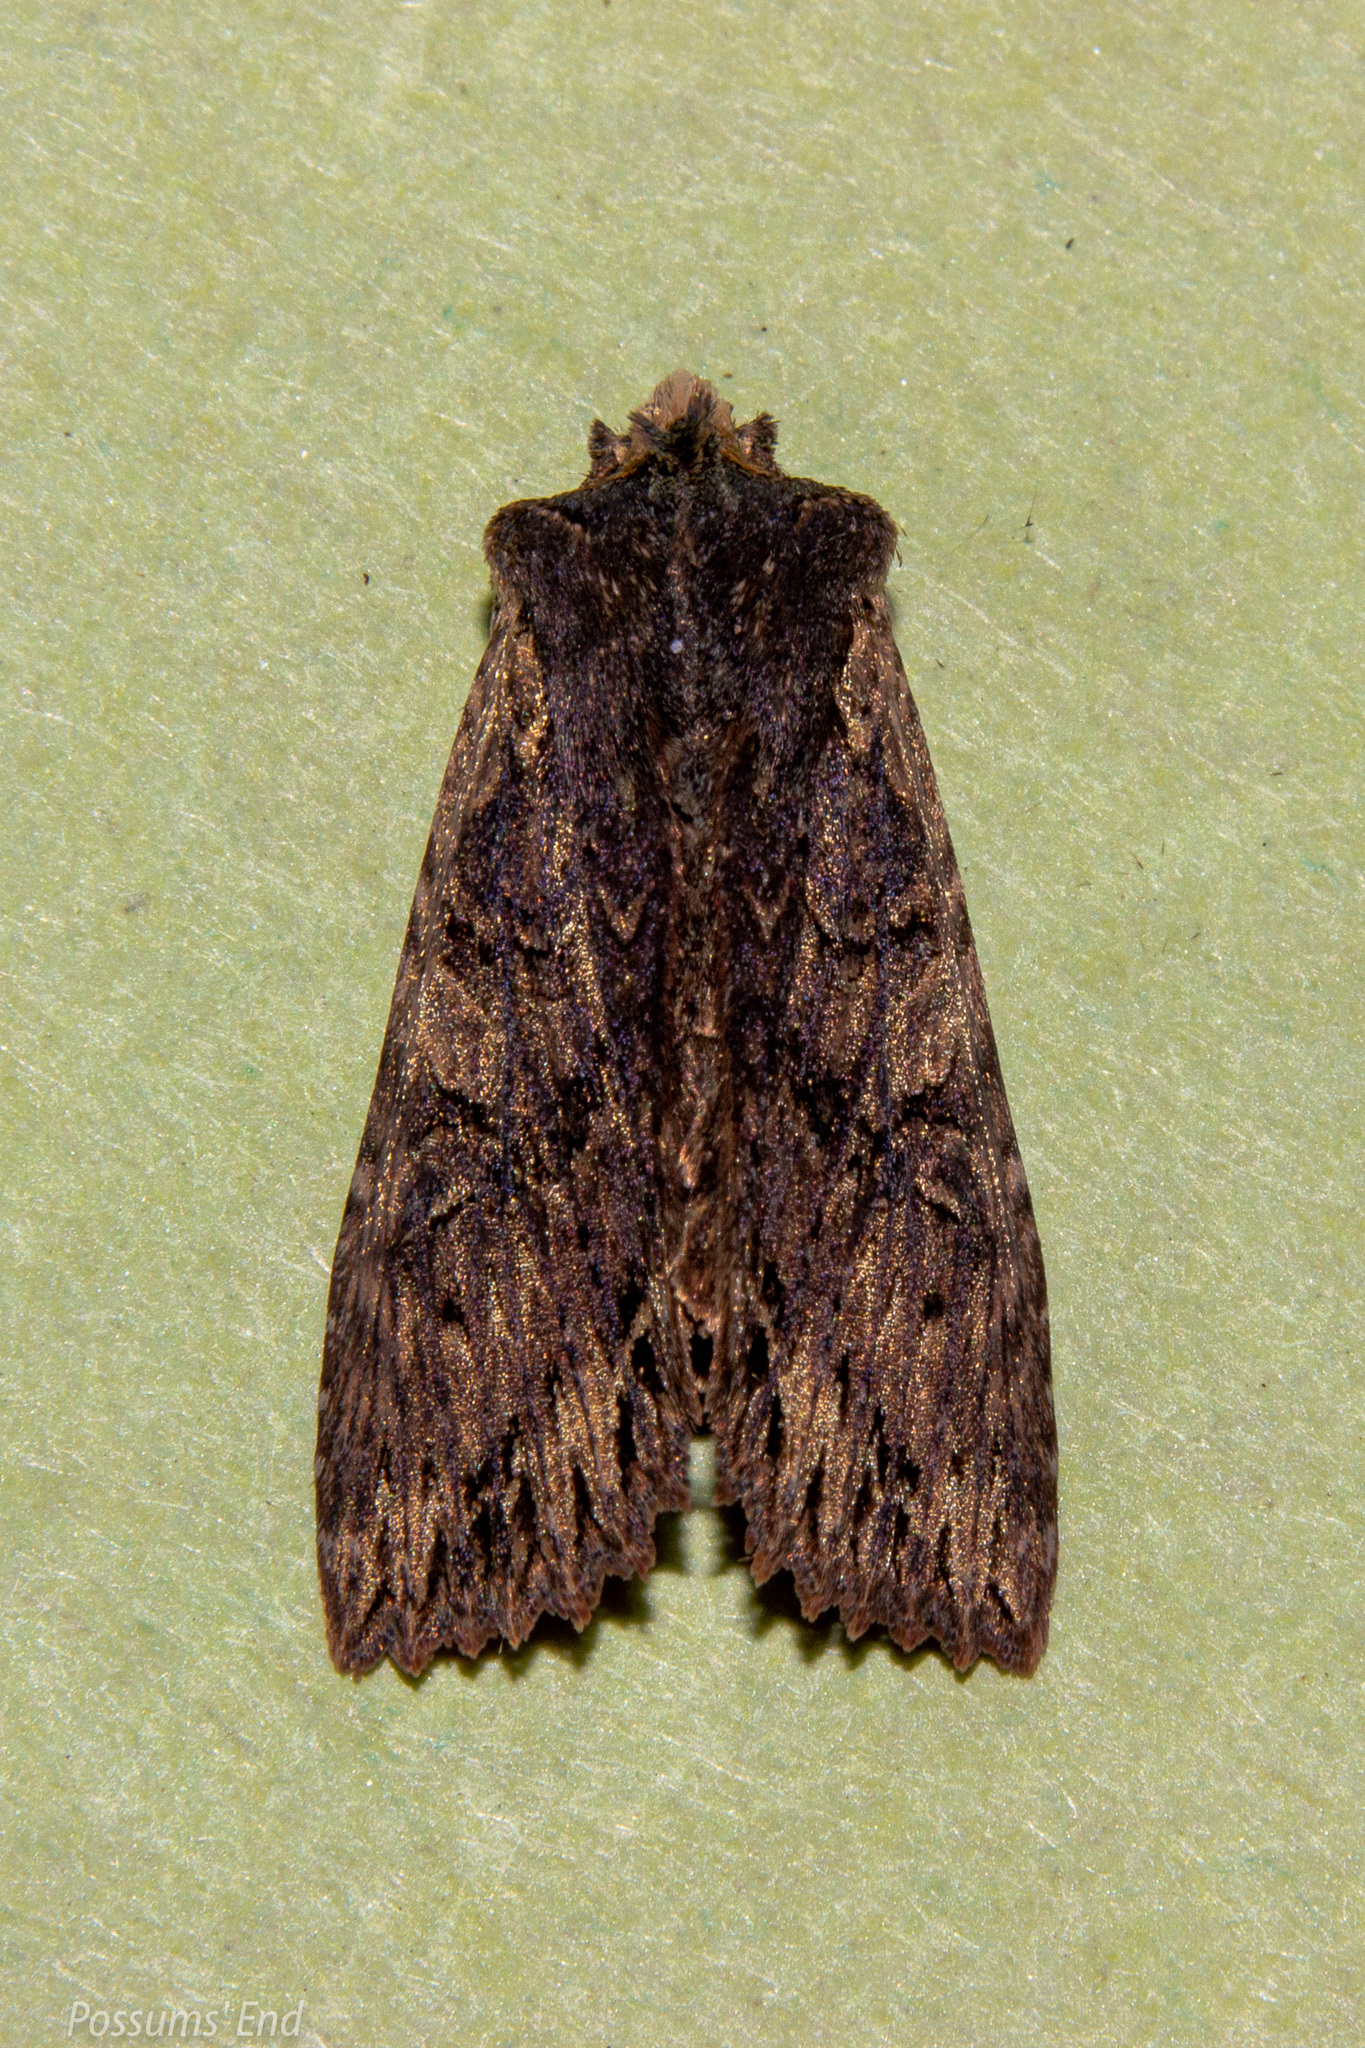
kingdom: Animalia
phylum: Arthropoda
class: Insecta
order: Lepidoptera
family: Noctuidae
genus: Meterana
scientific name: Meterana alcyone
